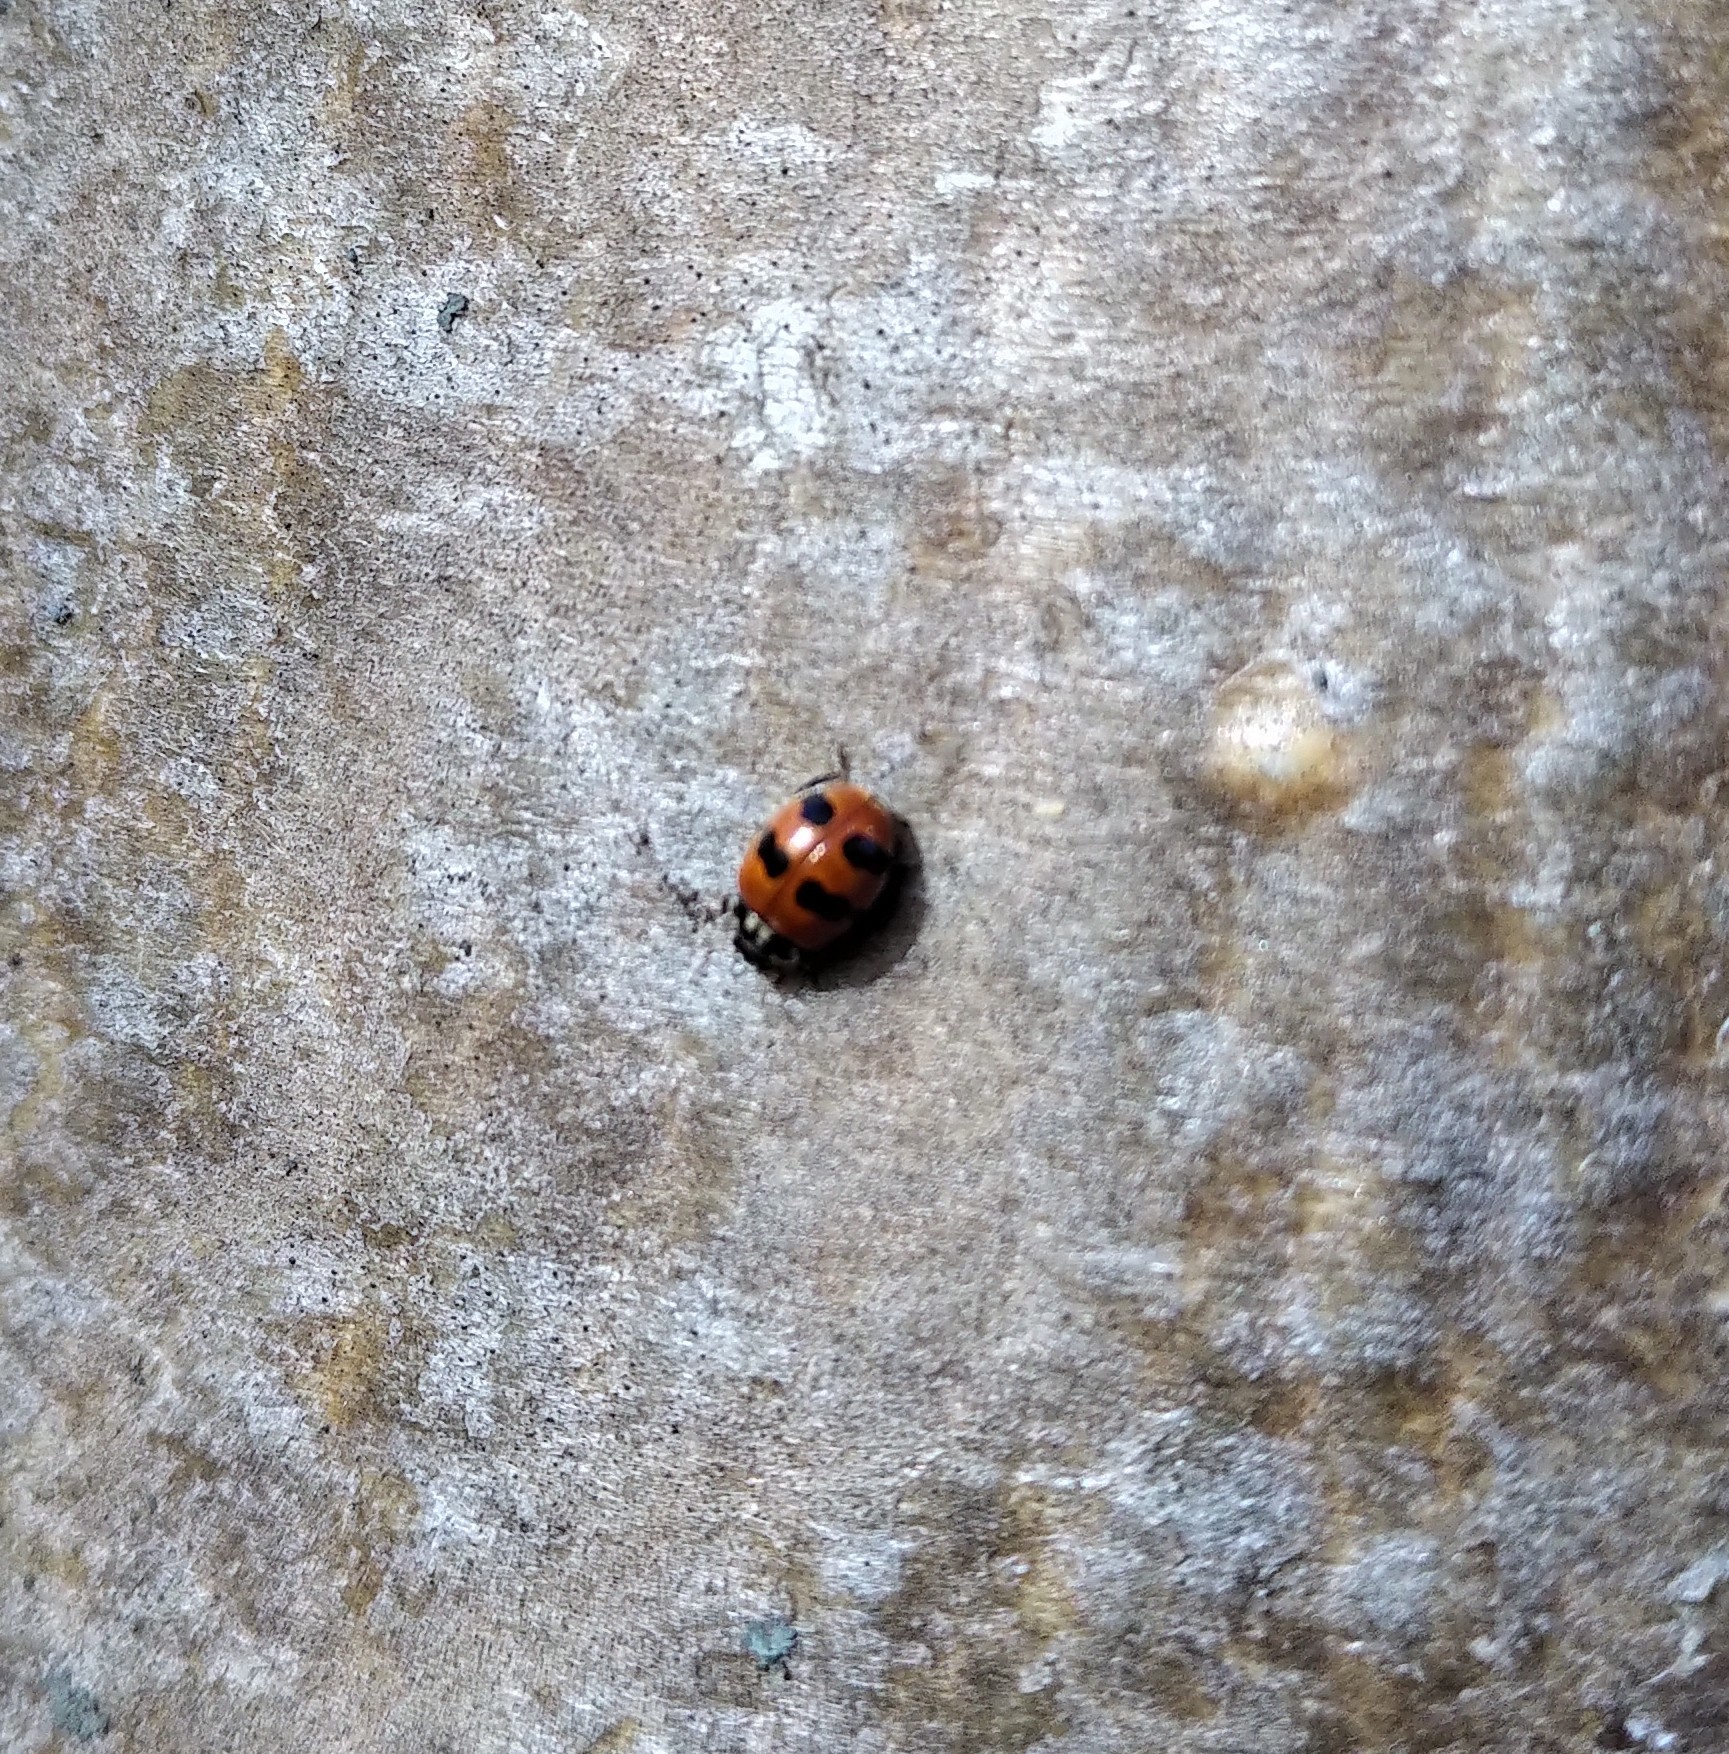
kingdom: Animalia
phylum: Arthropoda
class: Insecta
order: Coleoptera
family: Coccinellidae
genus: Adalia
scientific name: Adalia bipunctata
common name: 2-spot ladybird
